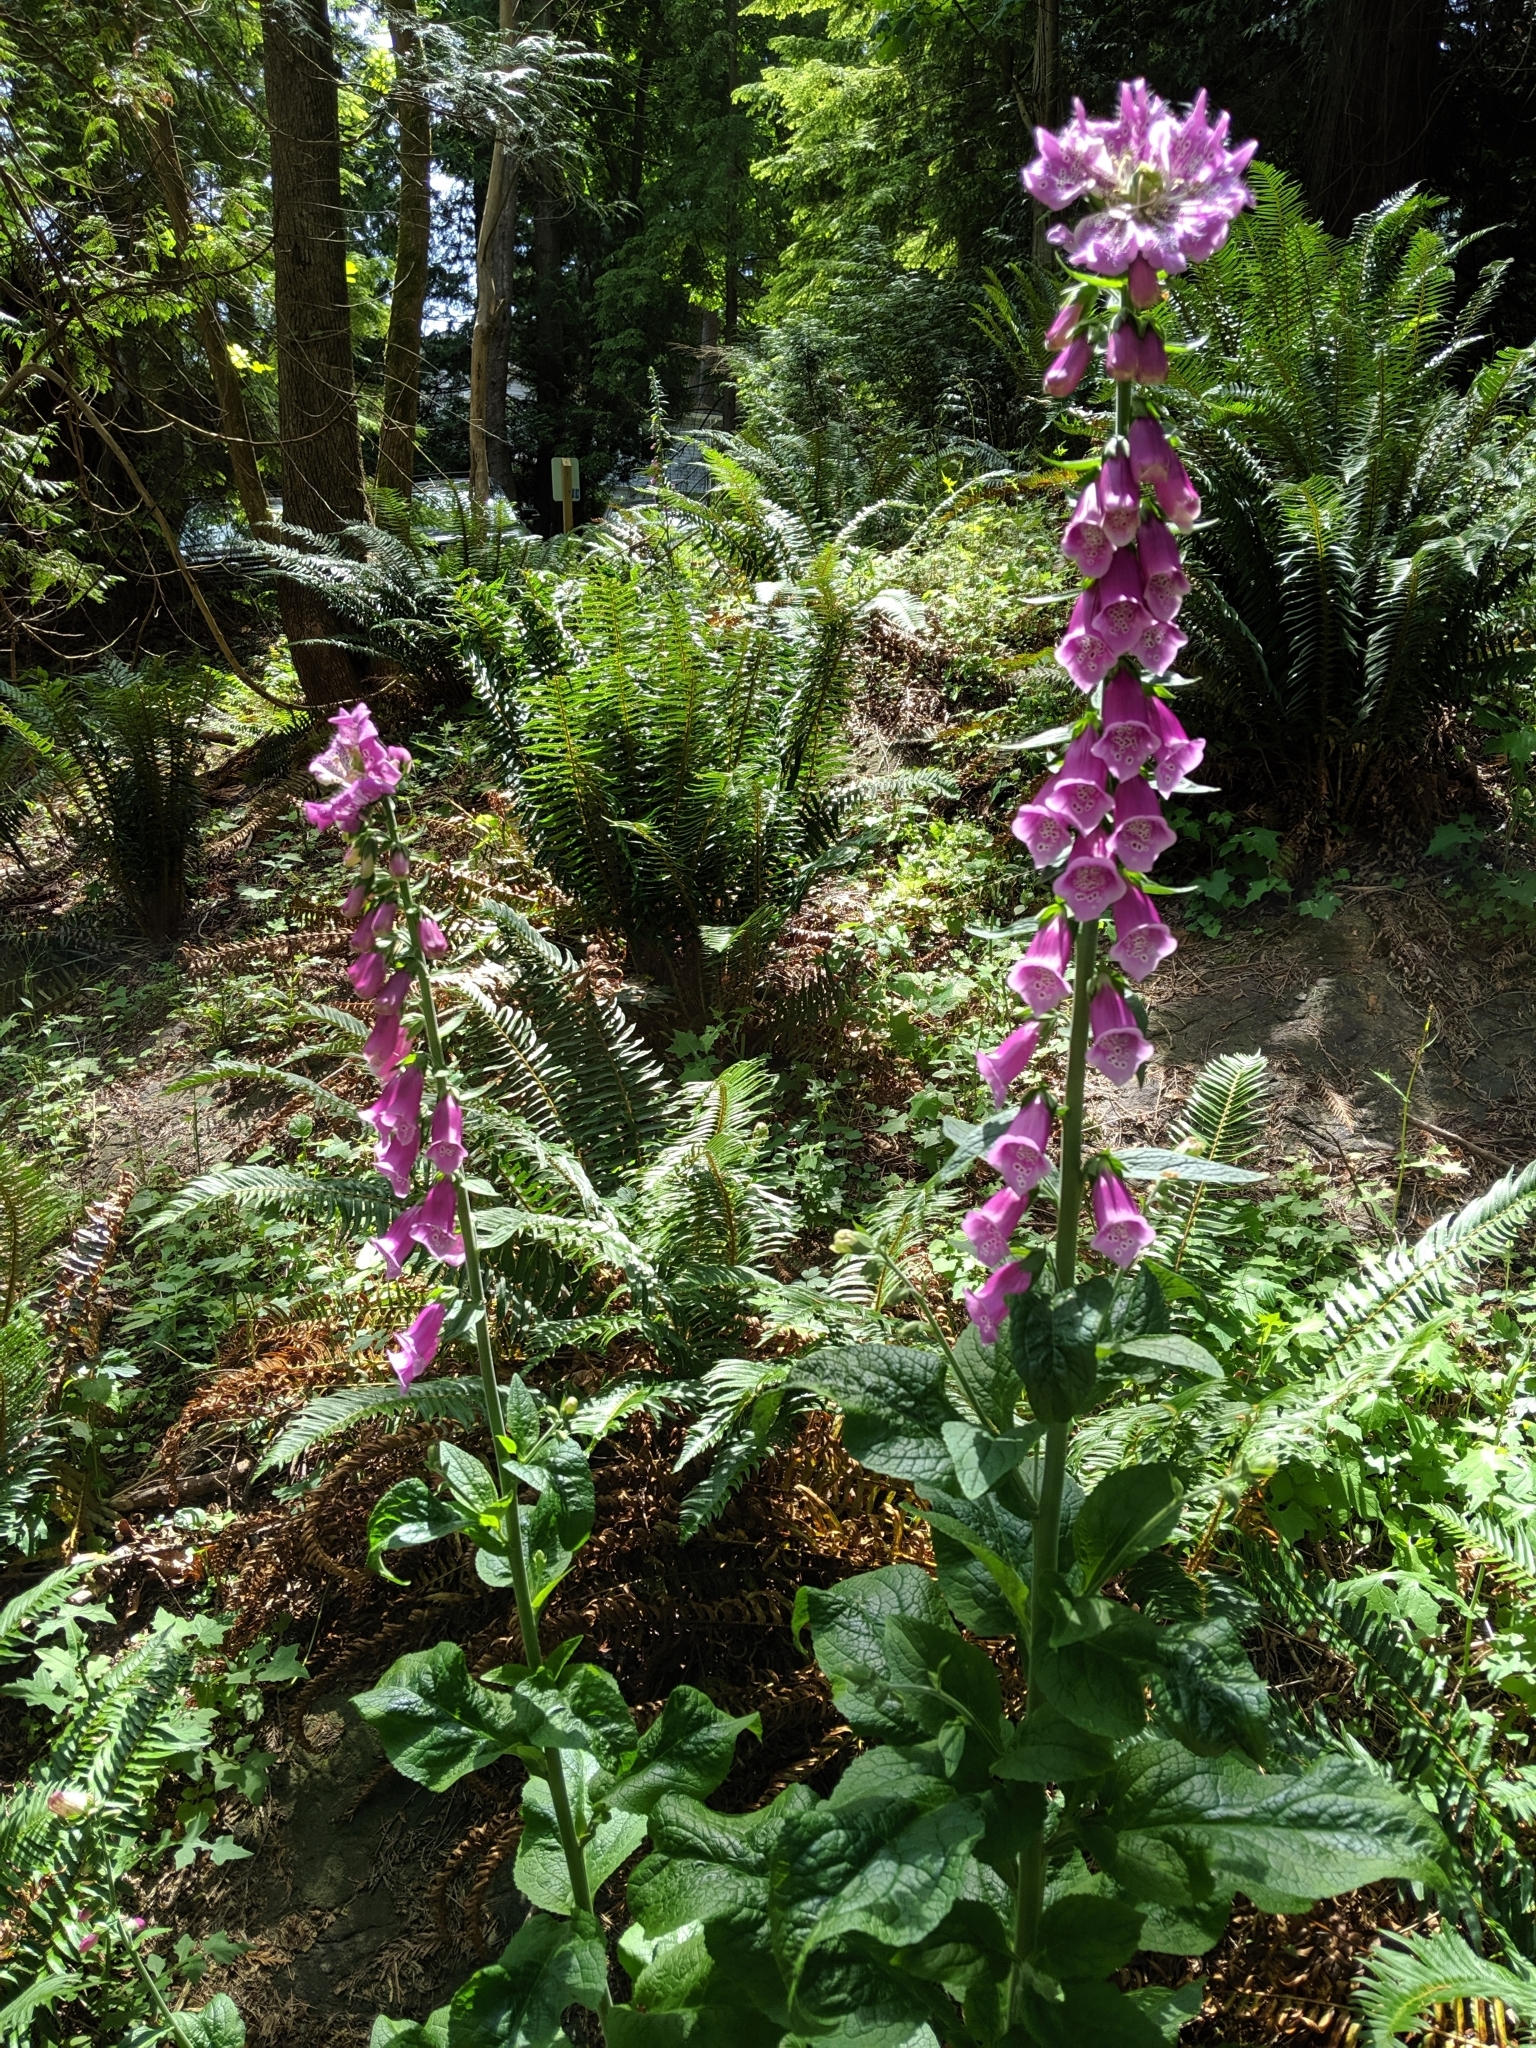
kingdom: Plantae
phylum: Tracheophyta
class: Magnoliopsida
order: Lamiales
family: Plantaginaceae
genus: Digitalis
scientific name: Digitalis purpurea
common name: Foxglove
